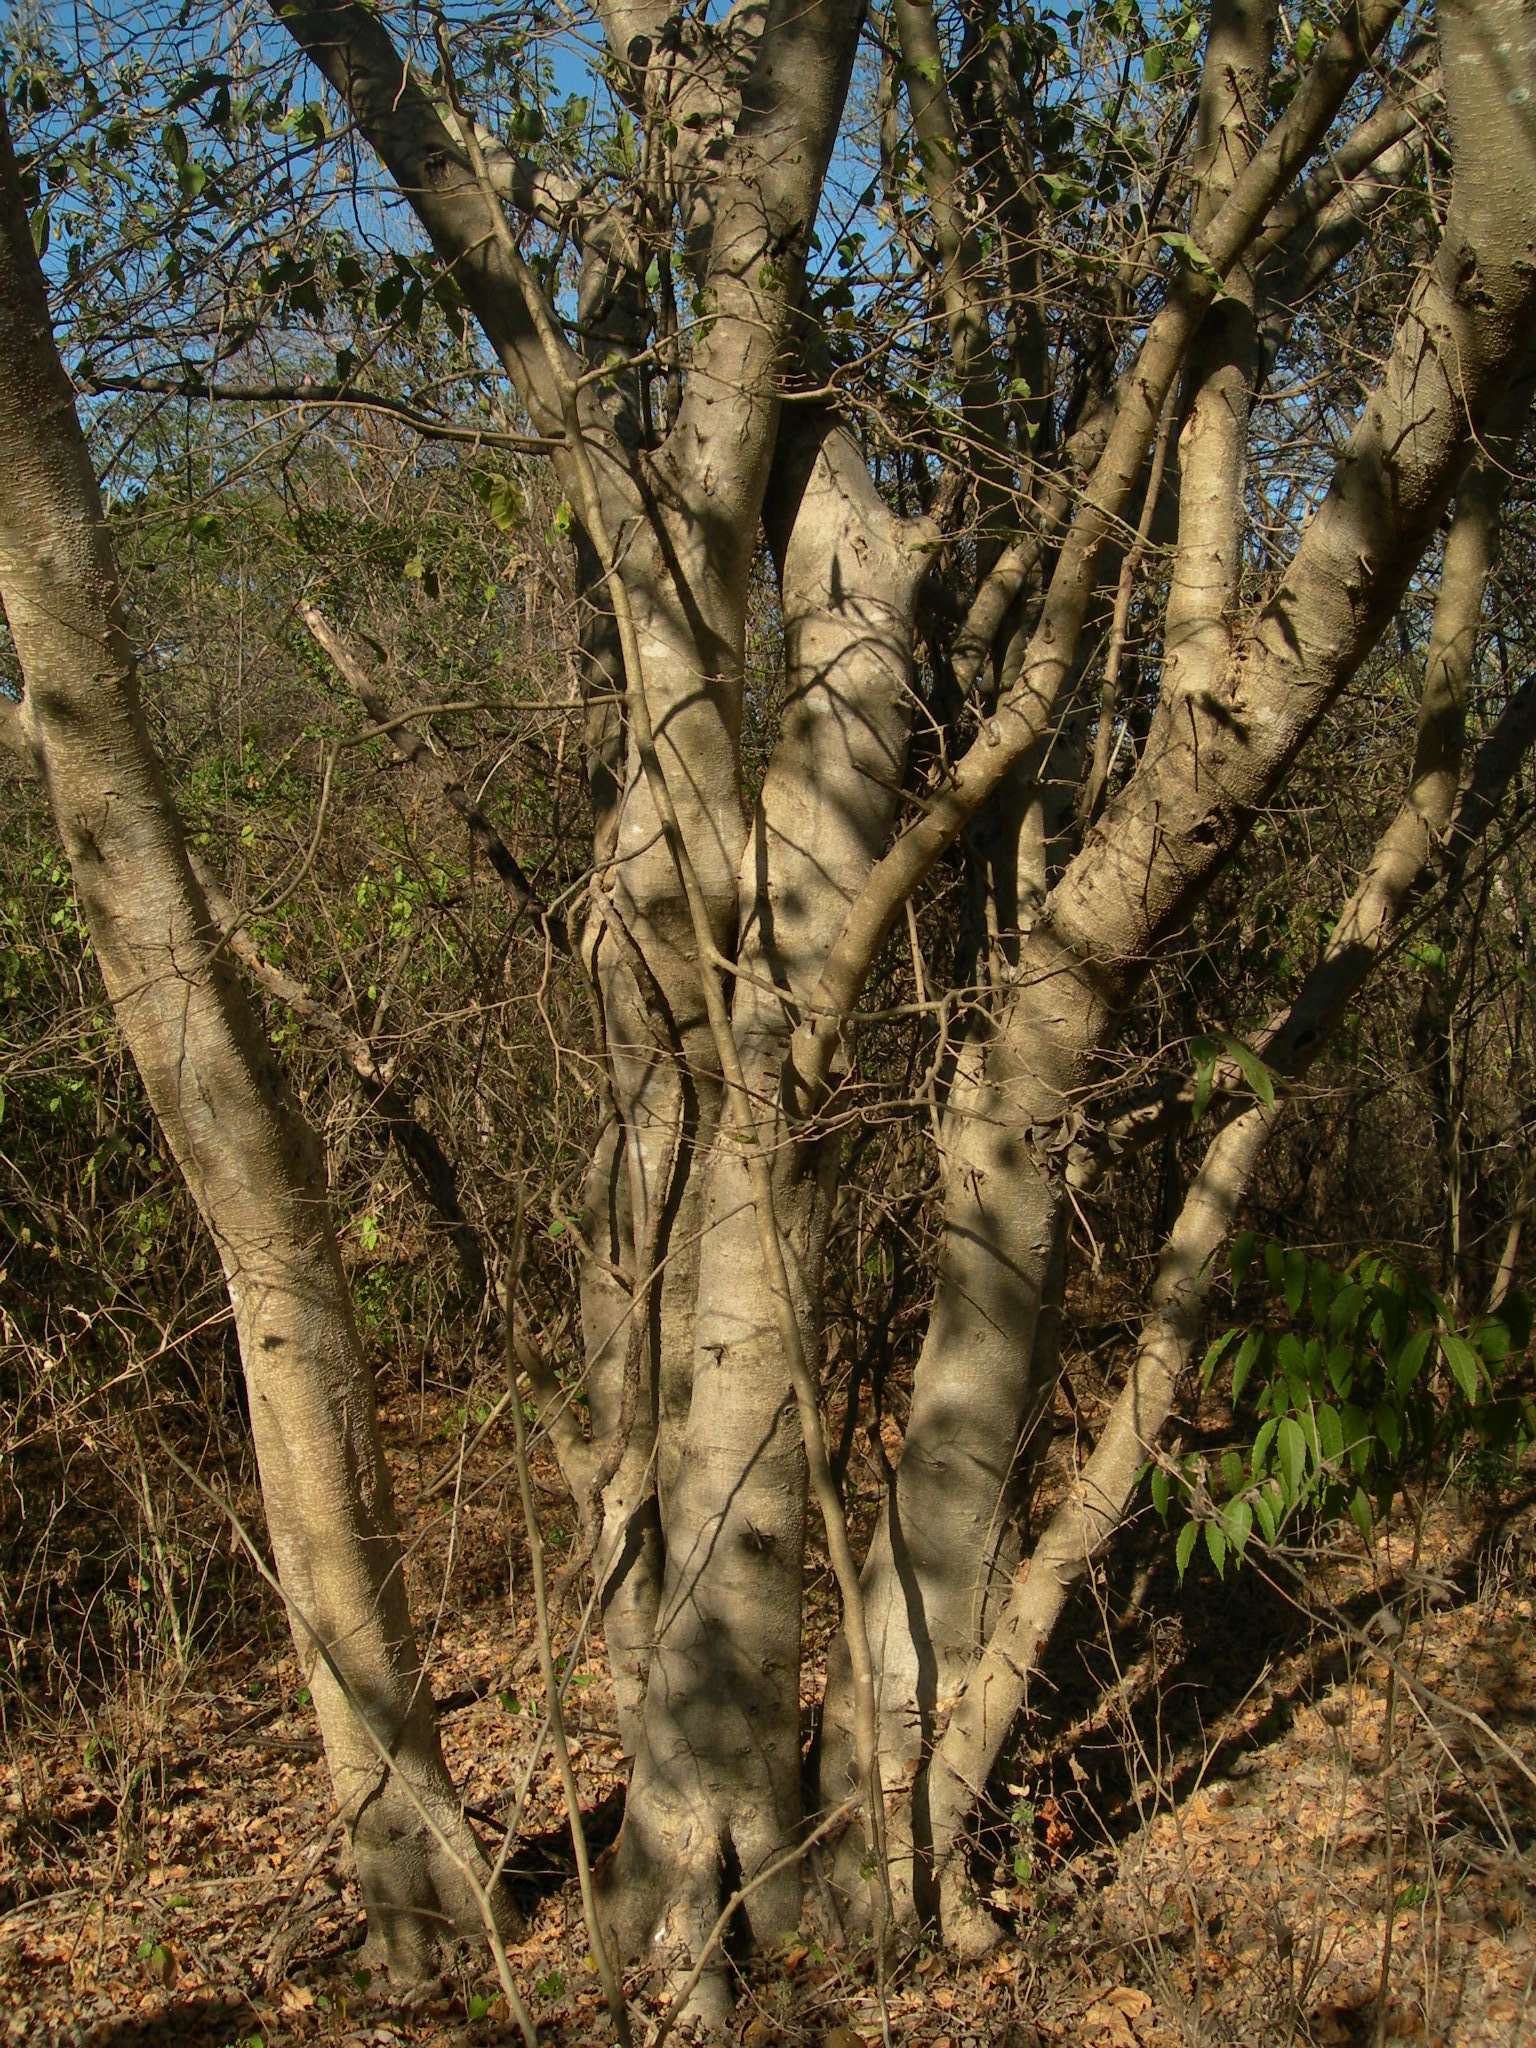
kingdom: Plantae
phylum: Tracheophyta
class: Magnoliopsida
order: Rosales
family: Moraceae
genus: Maclura
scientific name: Maclura tinctoria
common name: Old fustic
